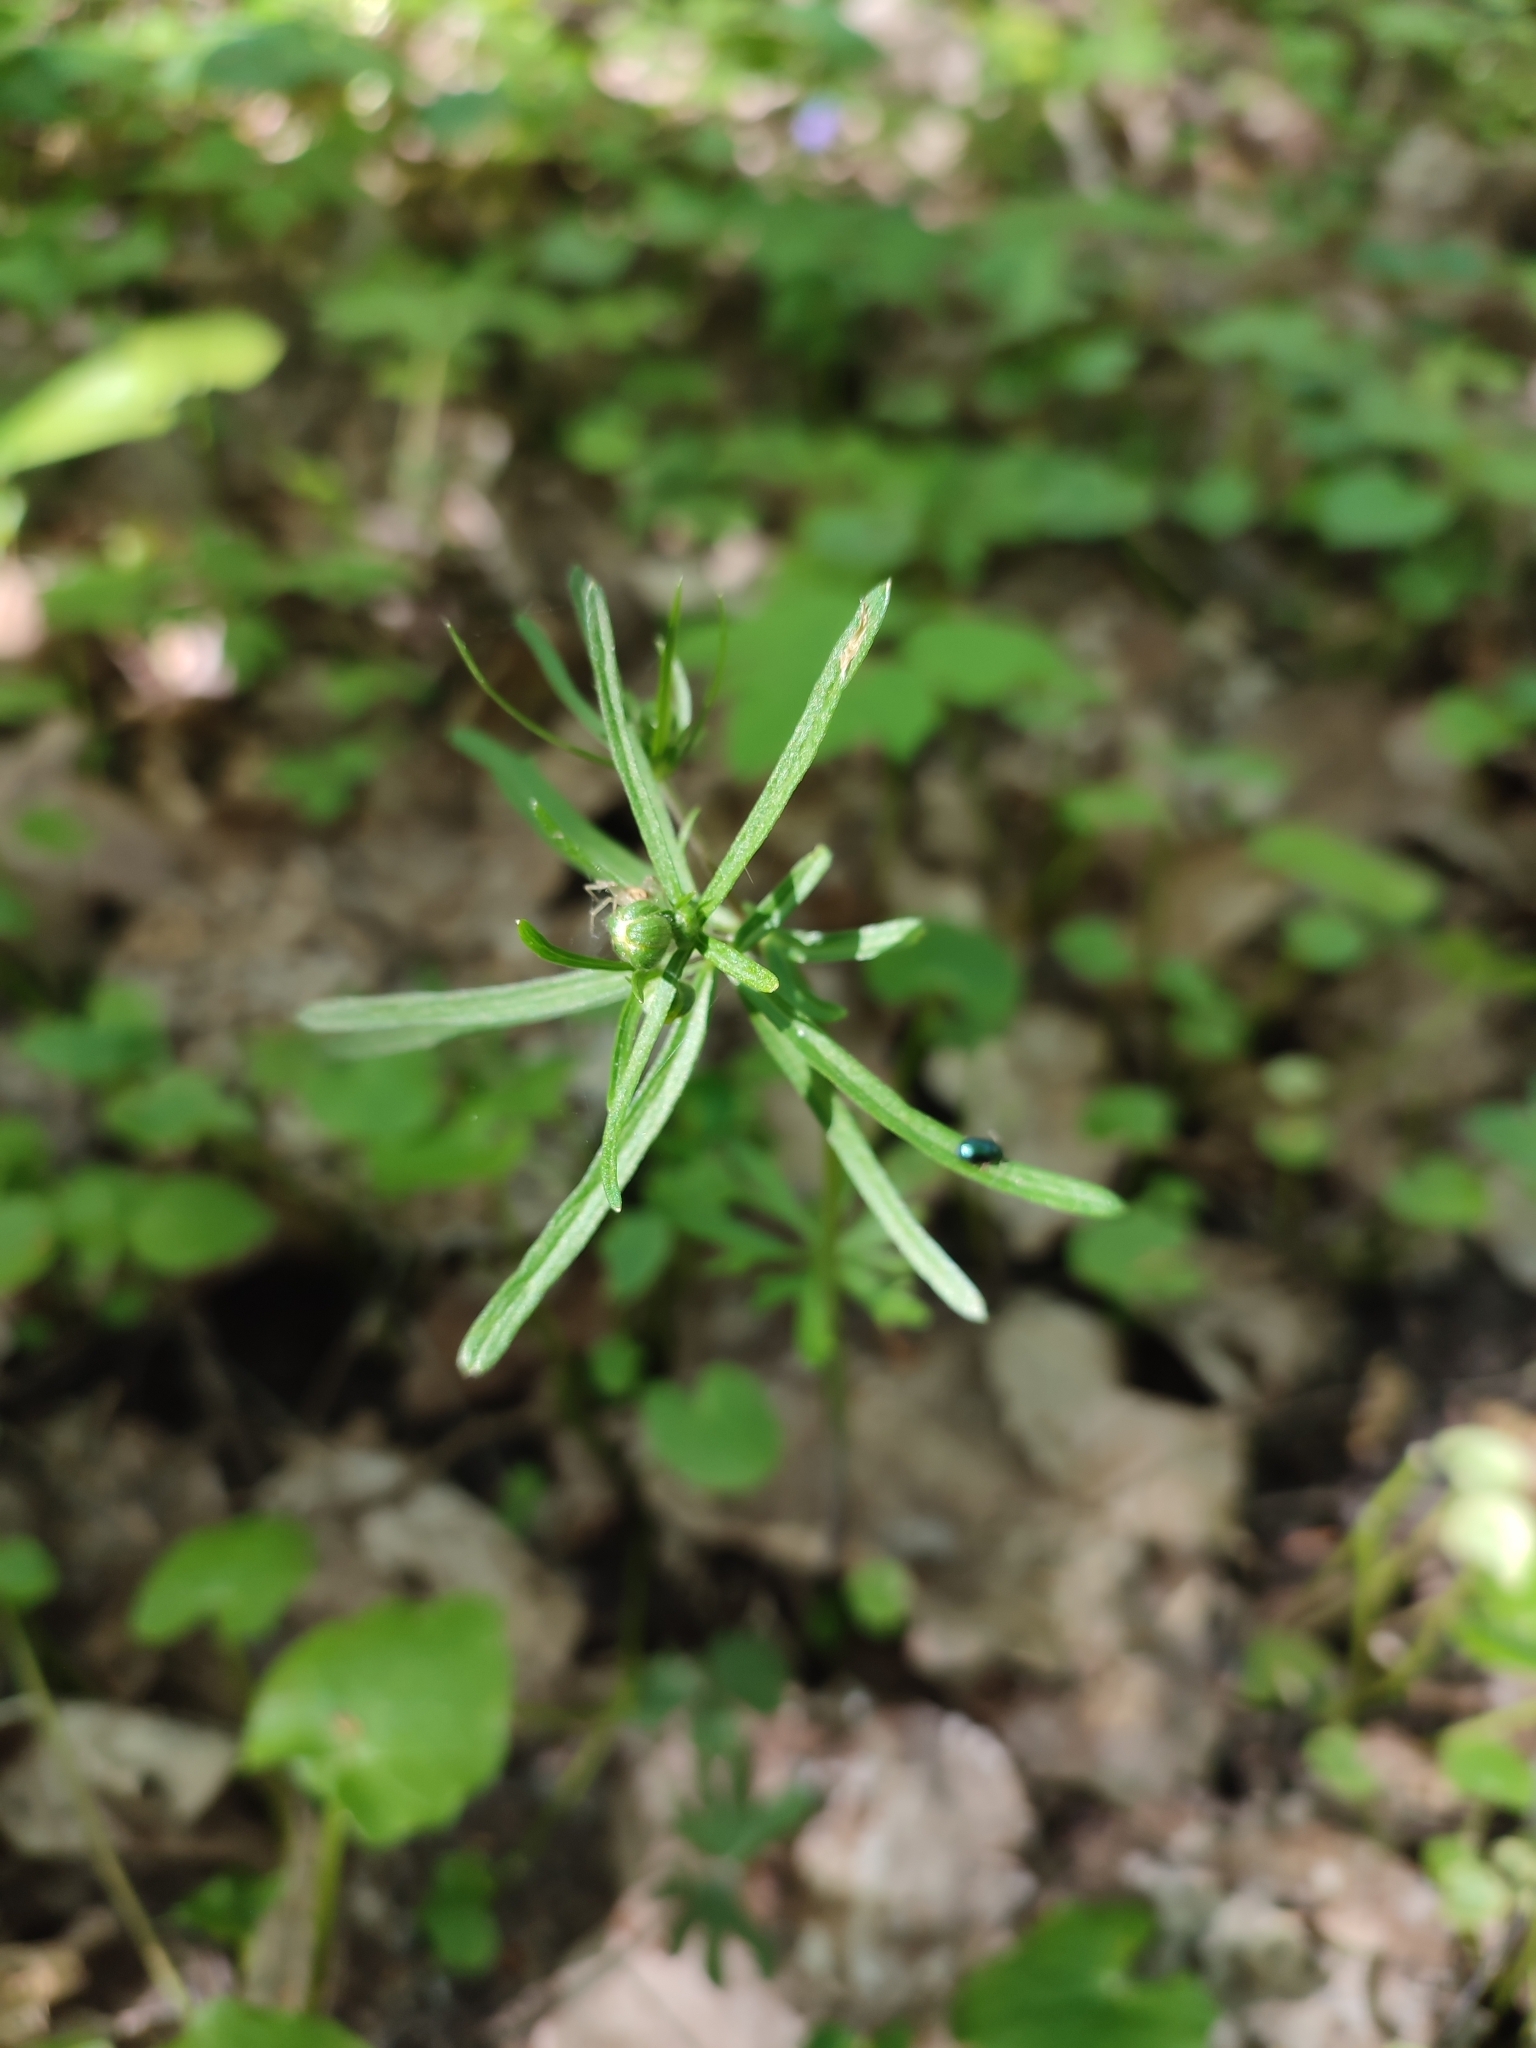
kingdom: Plantae
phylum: Tracheophyta
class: Magnoliopsida
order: Ranunculales
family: Ranunculaceae
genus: Ranunculus
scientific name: Ranunculus auricomus
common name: Goldilocks buttercup
